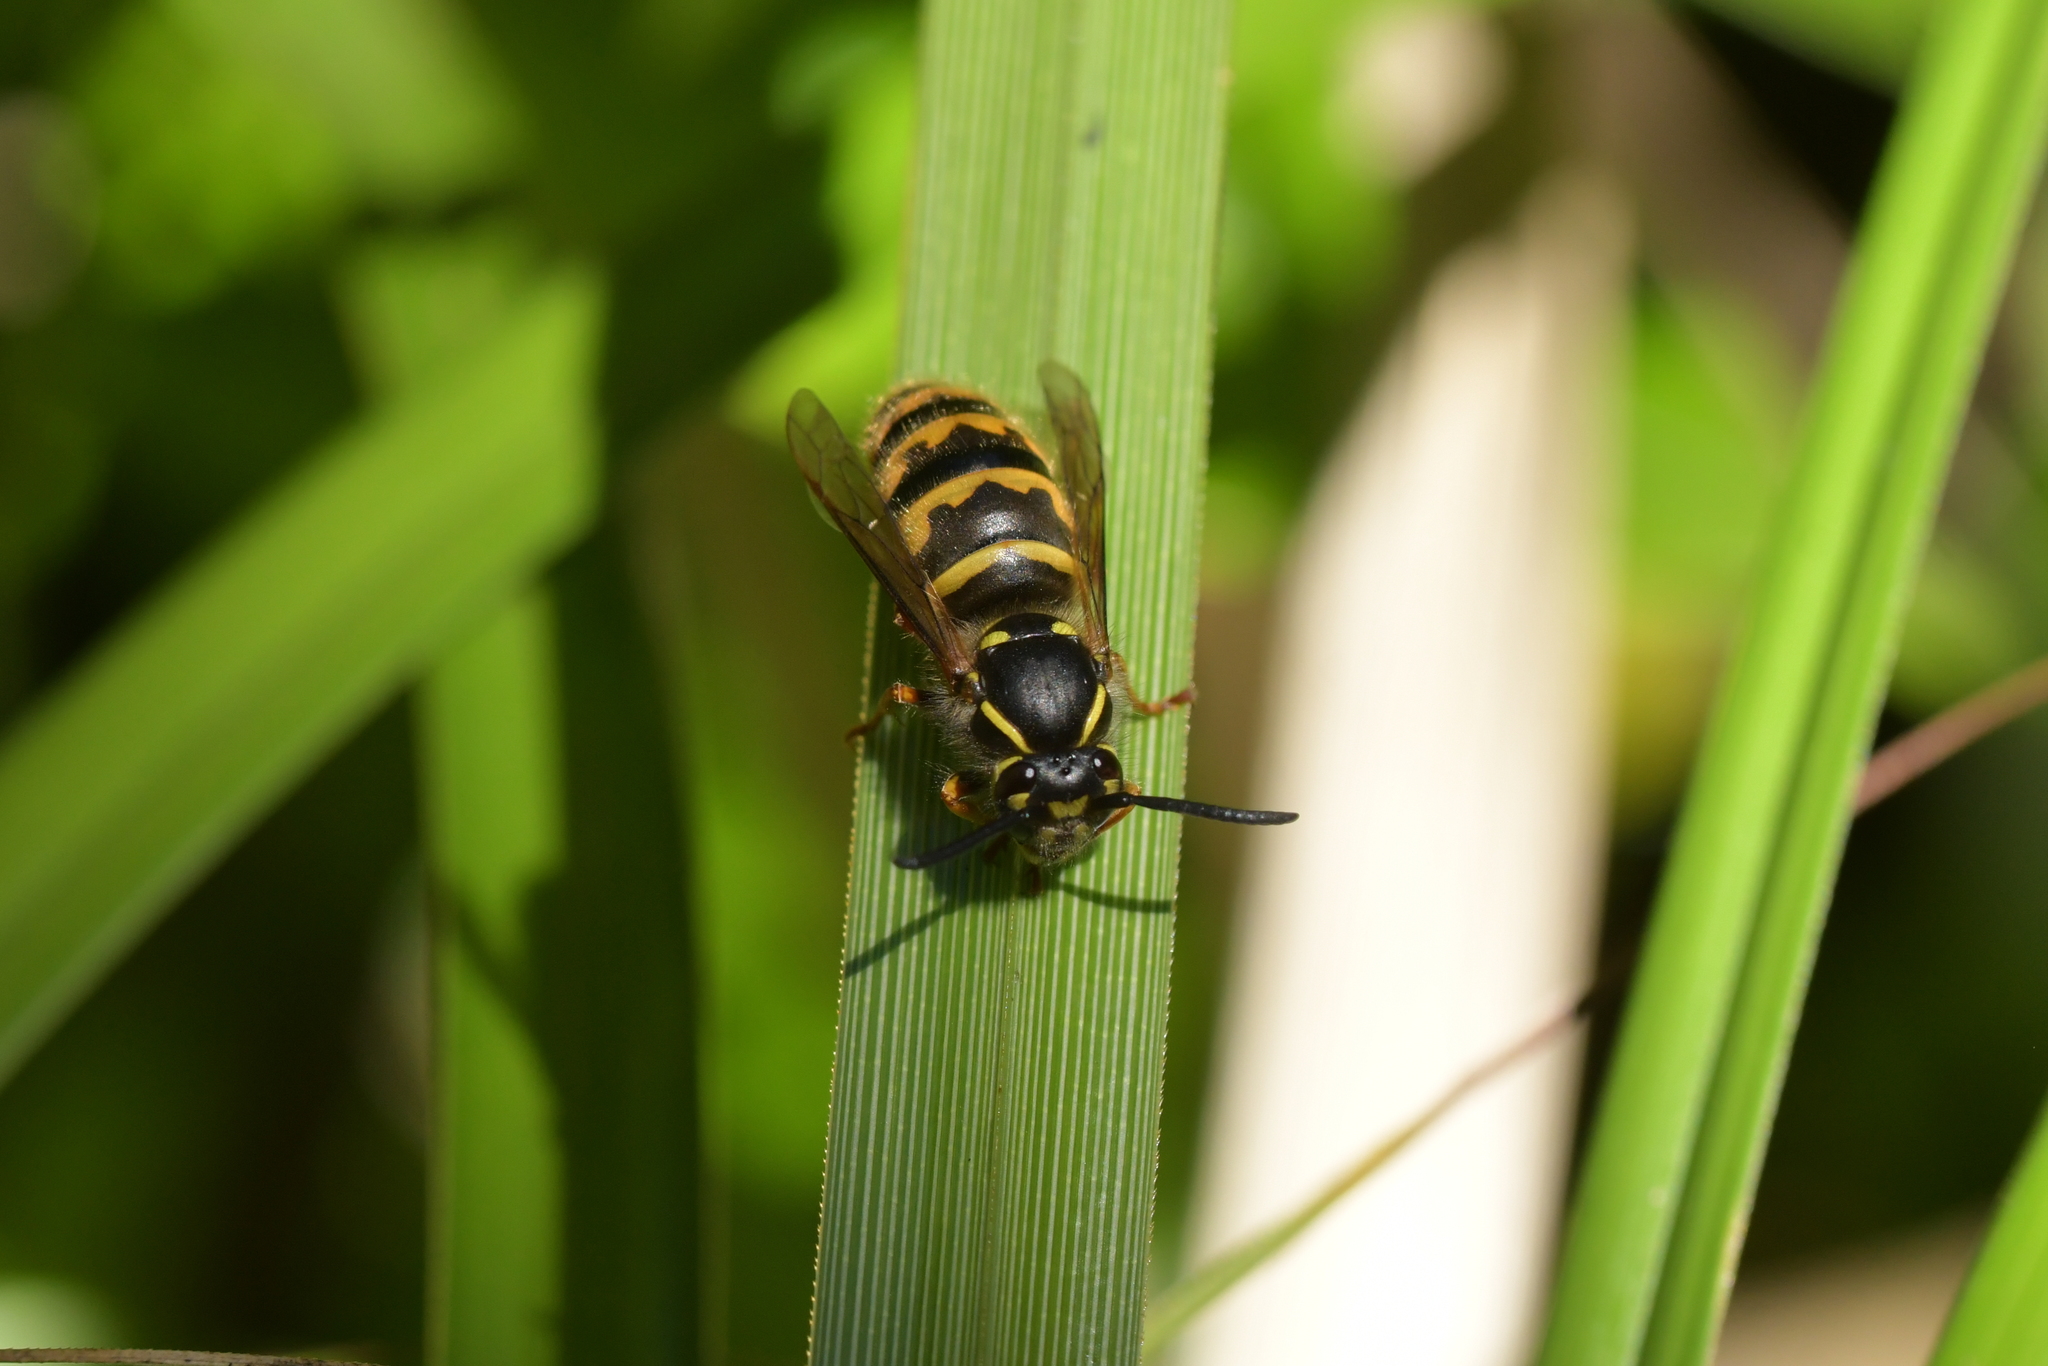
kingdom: Animalia
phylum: Arthropoda
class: Insecta
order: Hymenoptera
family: Vespidae
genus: Vespula
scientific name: Vespula vulgaris
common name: Common wasp
